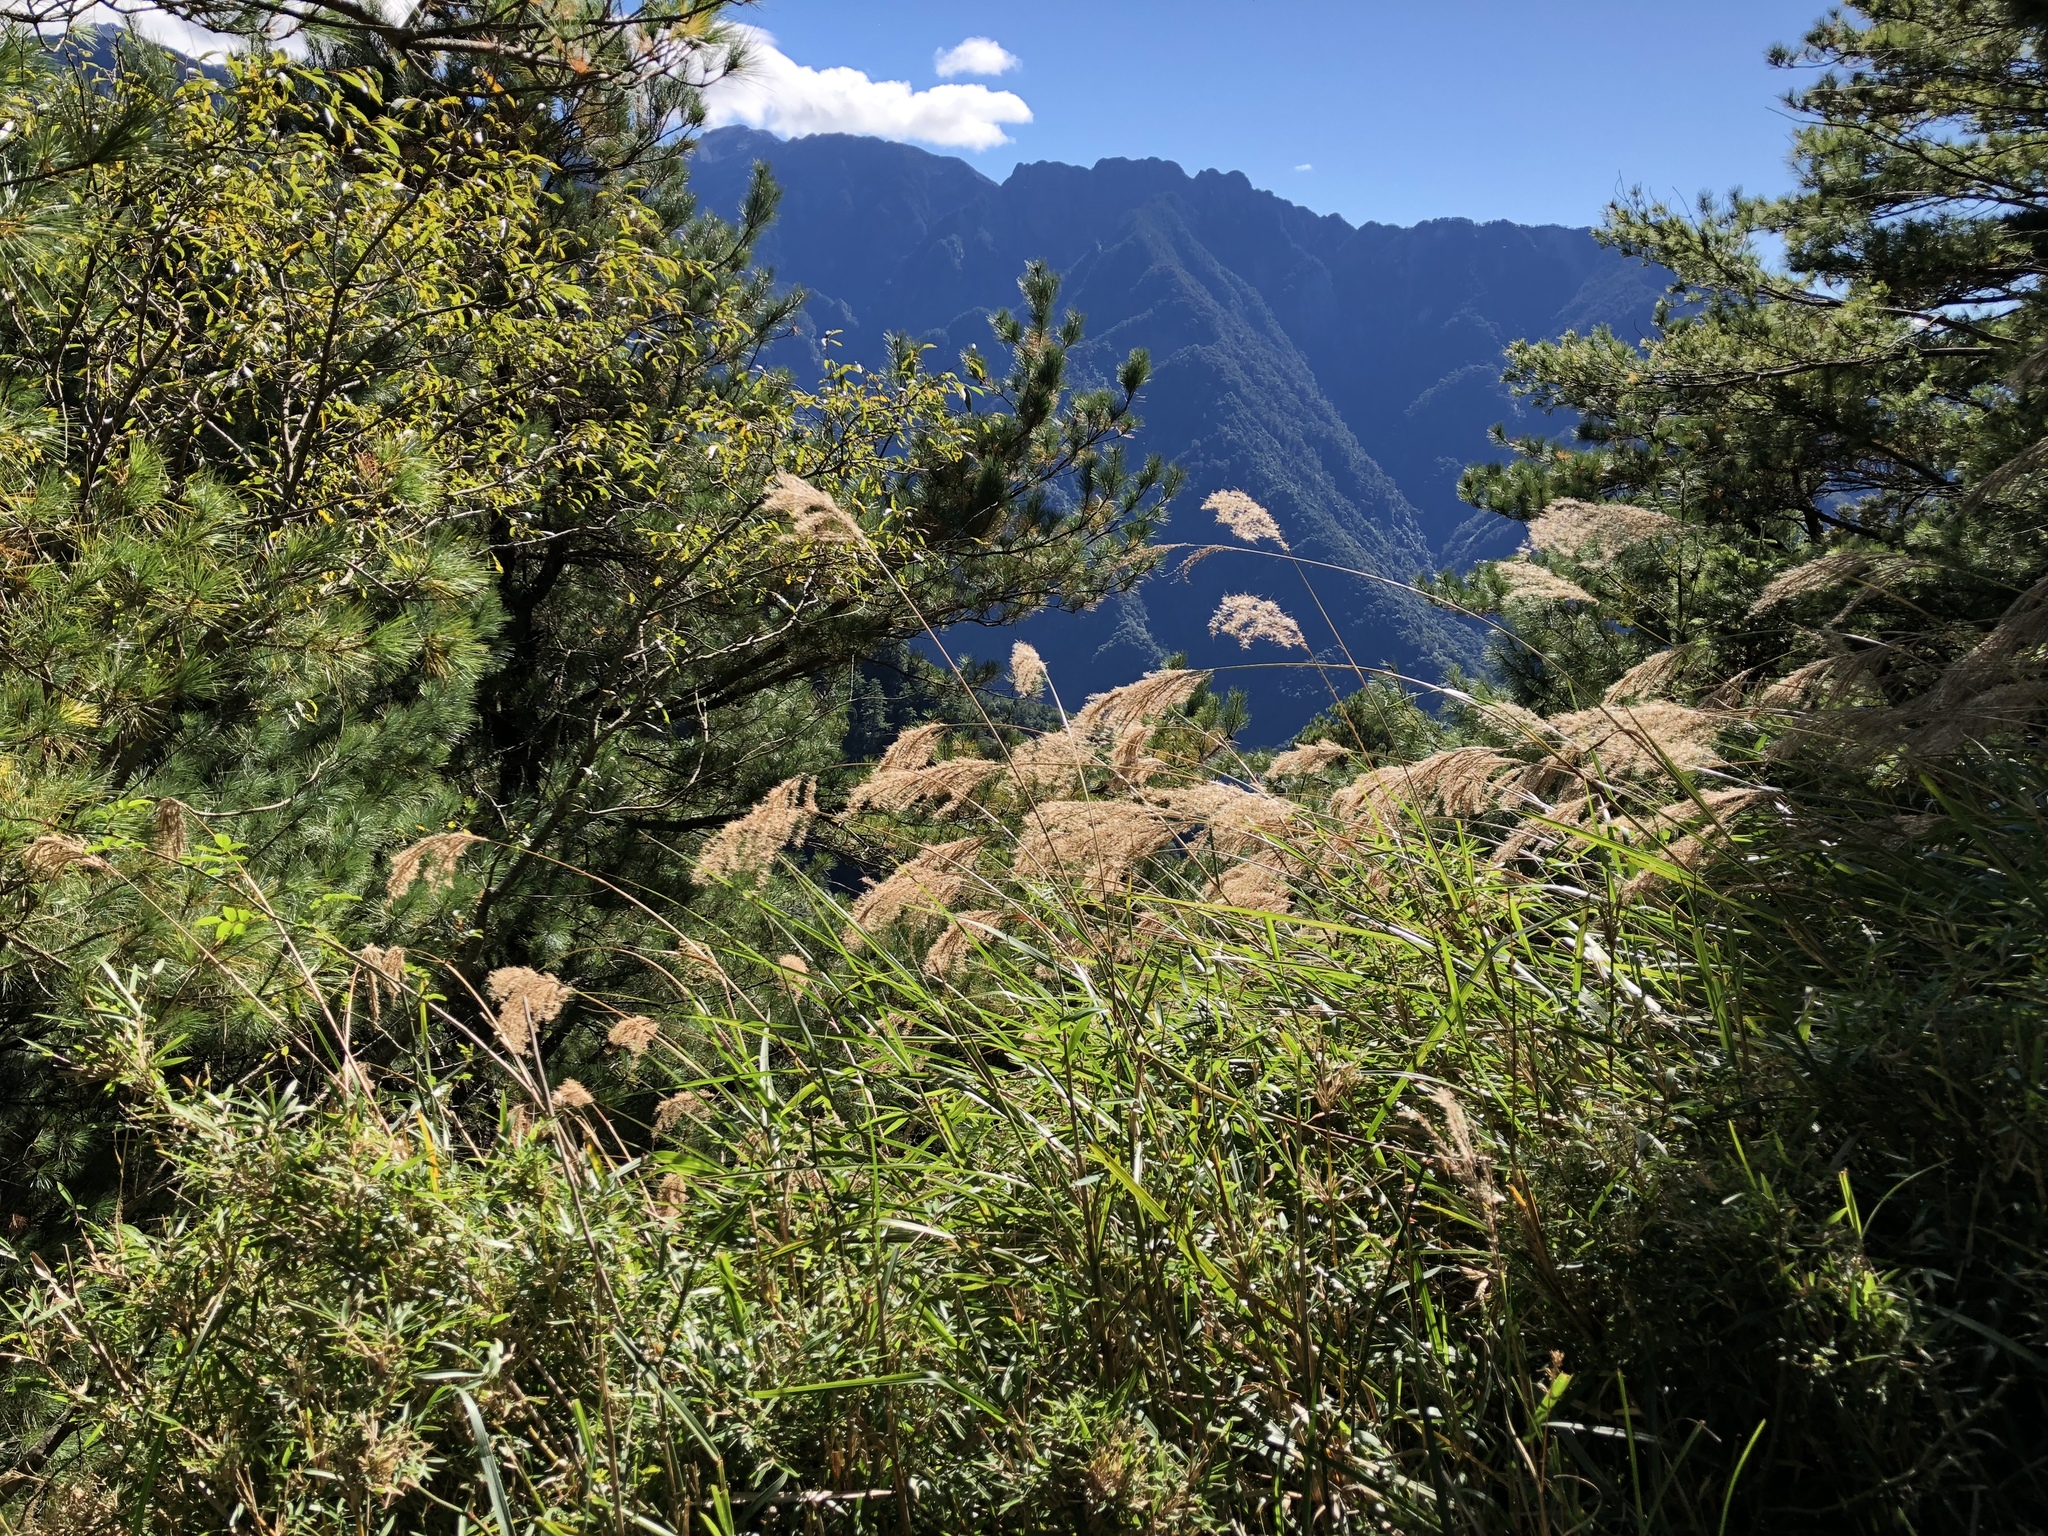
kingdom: Plantae
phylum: Tracheophyta
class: Liliopsida
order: Poales
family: Poaceae
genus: Miscanthus
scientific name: Miscanthus sinensis
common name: Chinese silvergrass
